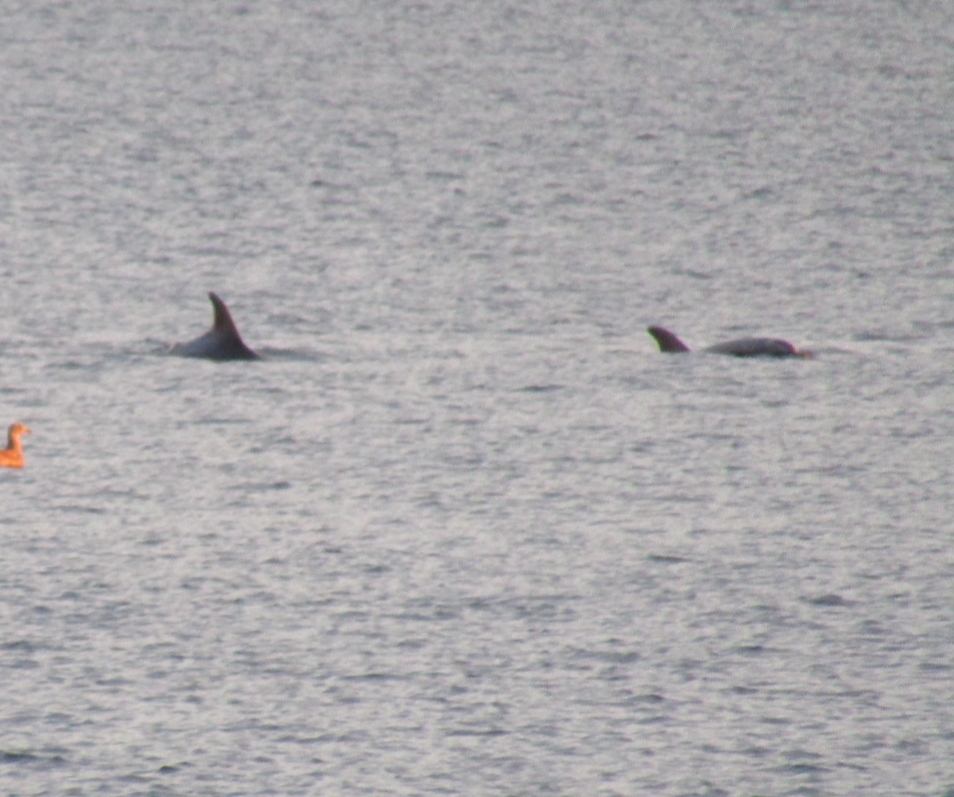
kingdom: Animalia
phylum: Chordata
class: Mammalia
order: Cetacea
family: Delphinidae
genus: Tursiops
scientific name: Tursiops truncatus
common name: Bottlenose dolphin
